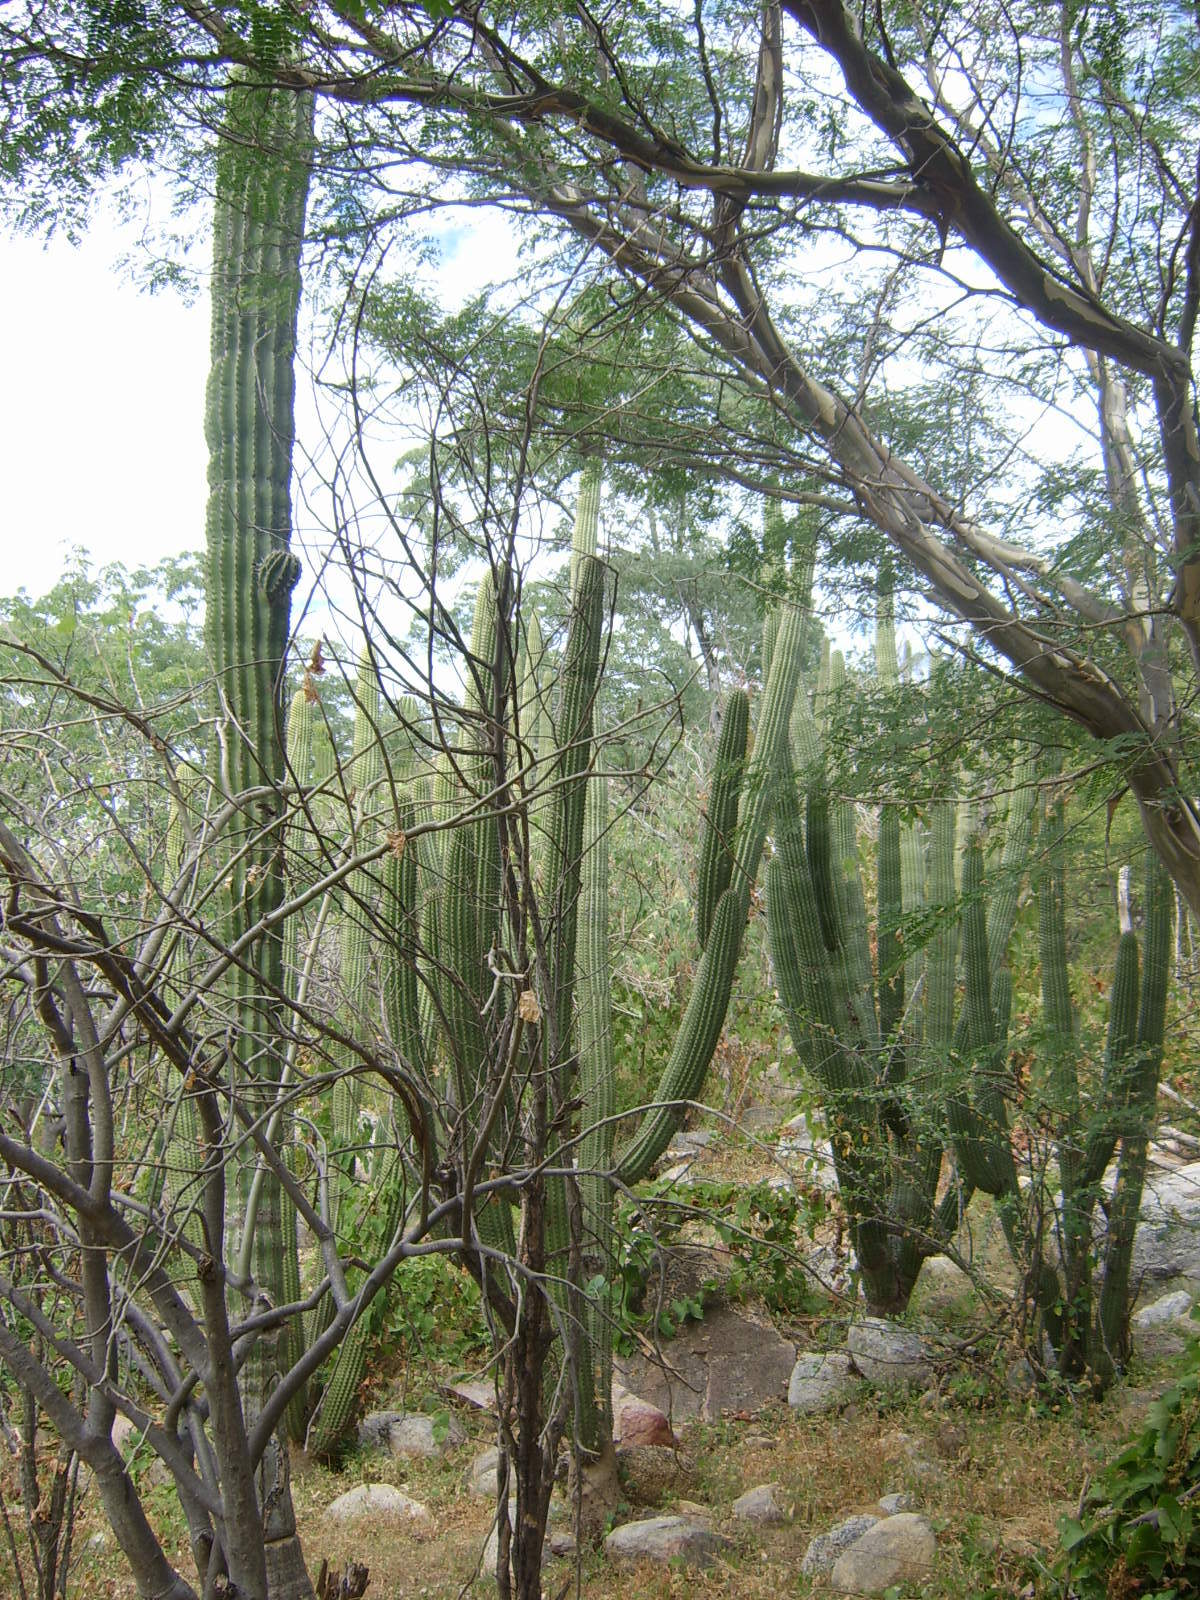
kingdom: Plantae
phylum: Tracheophyta
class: Magnoliopsida
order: Caryophyllales
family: Cactaceae
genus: Stenocereus
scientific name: Stenocereus thurberi
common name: Organ pipe cactus
